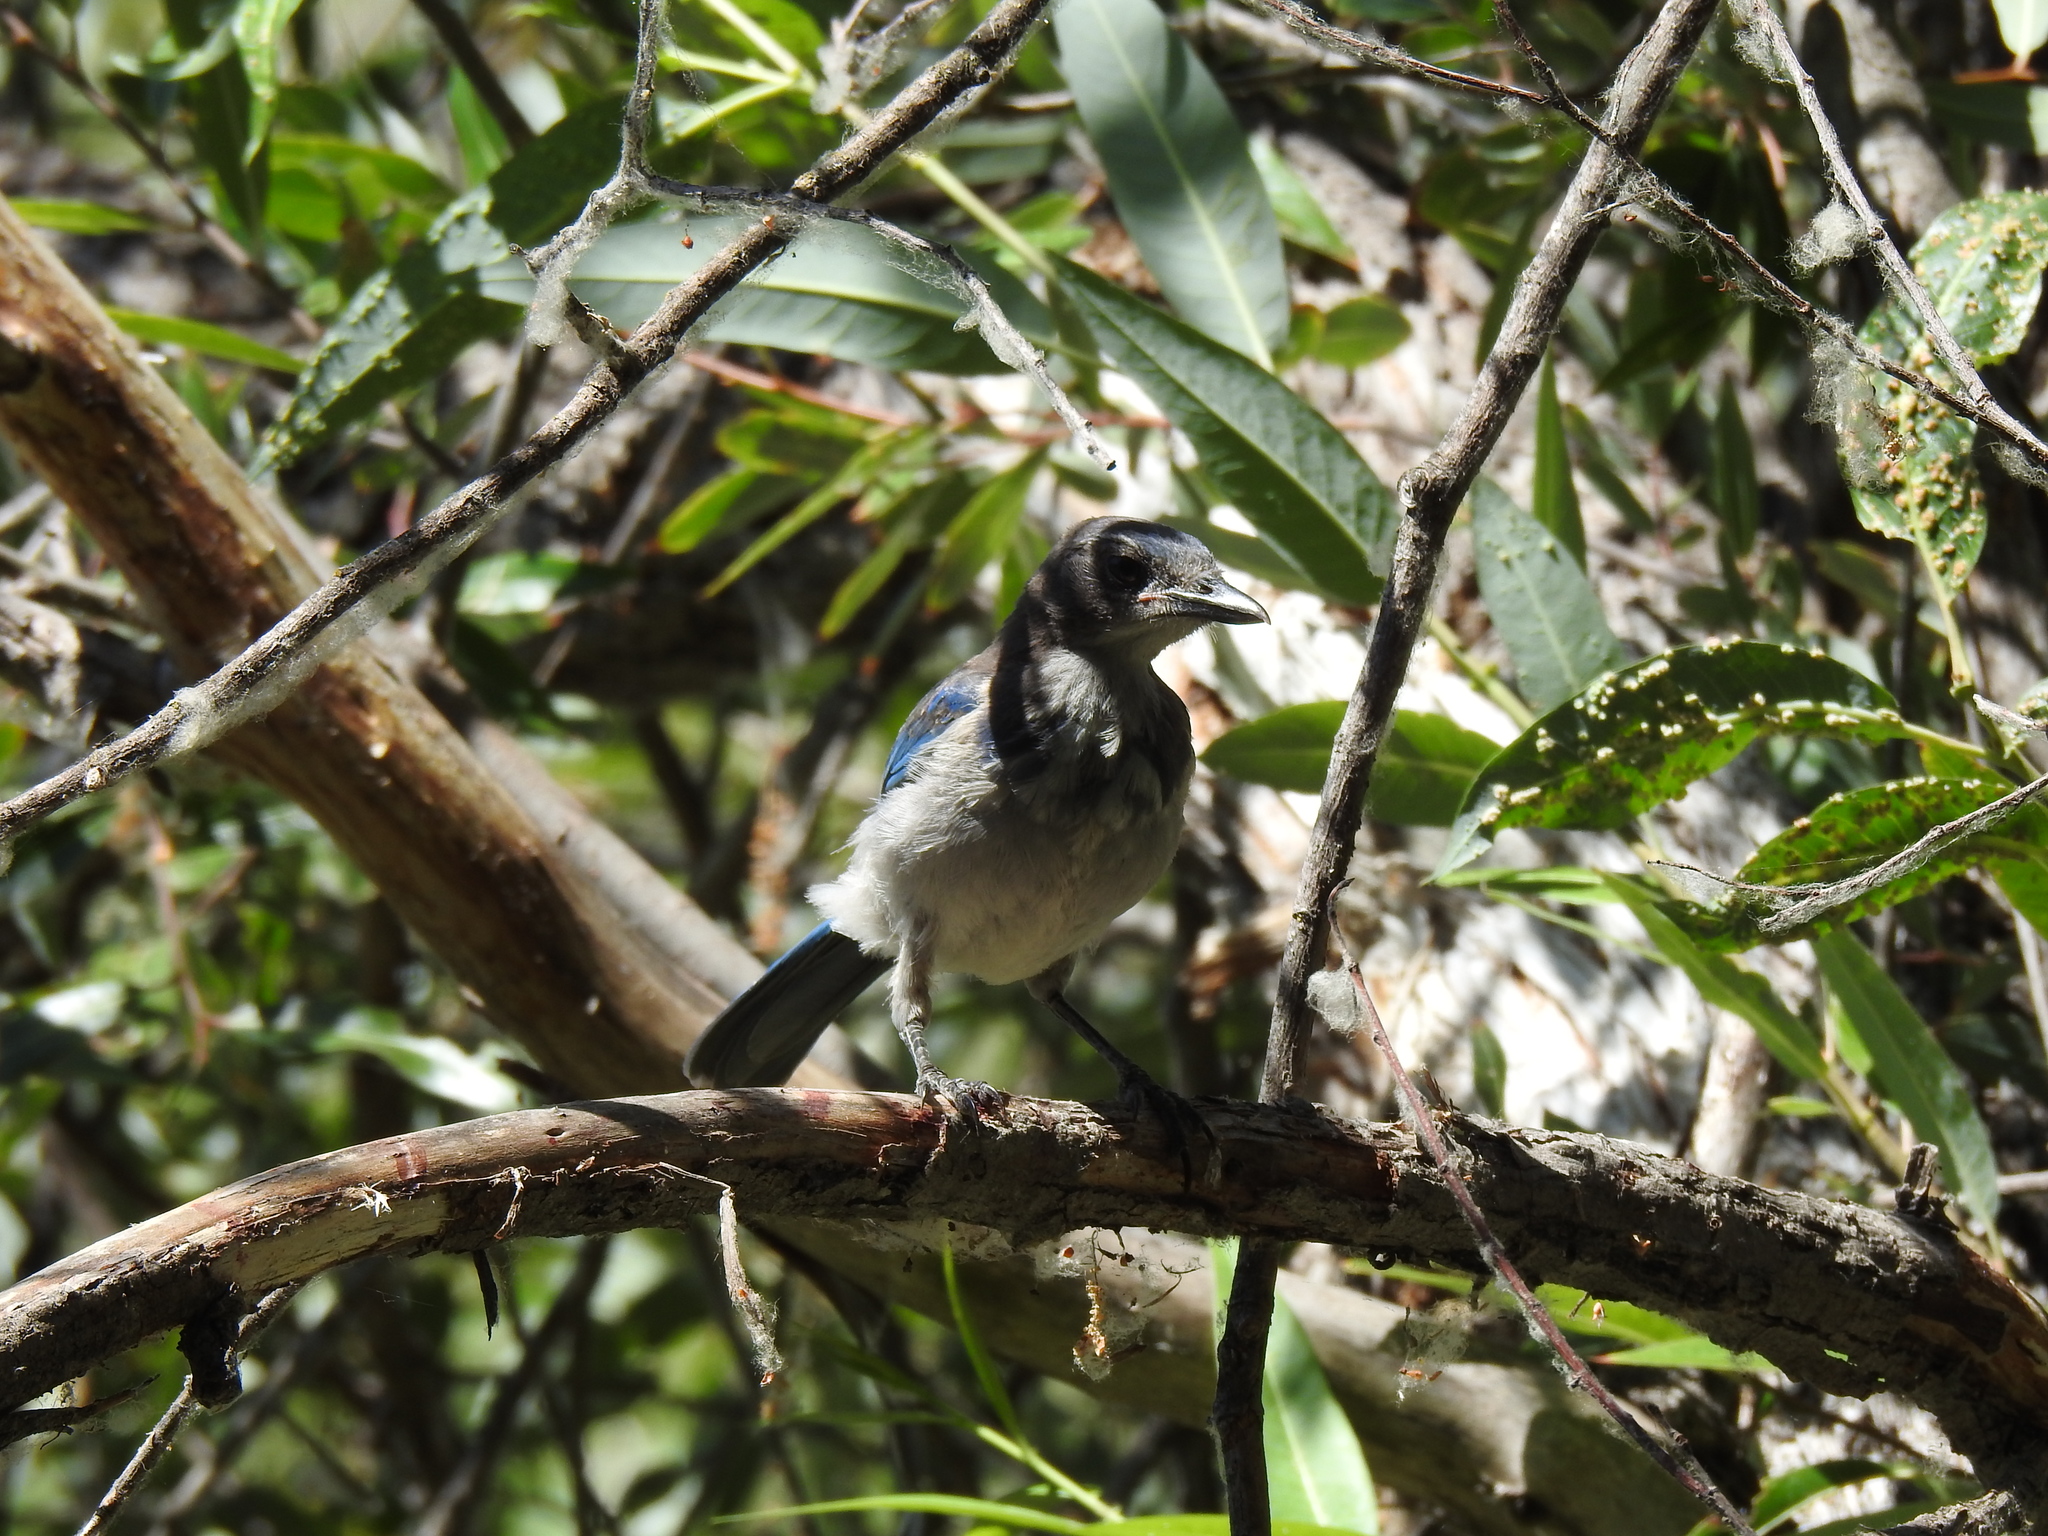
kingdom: Animalia
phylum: Chordata
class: Aves
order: Passeriformes
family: Corvidae
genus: Aphelocoma
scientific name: Aphelocoma californica
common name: California scrub-jay
